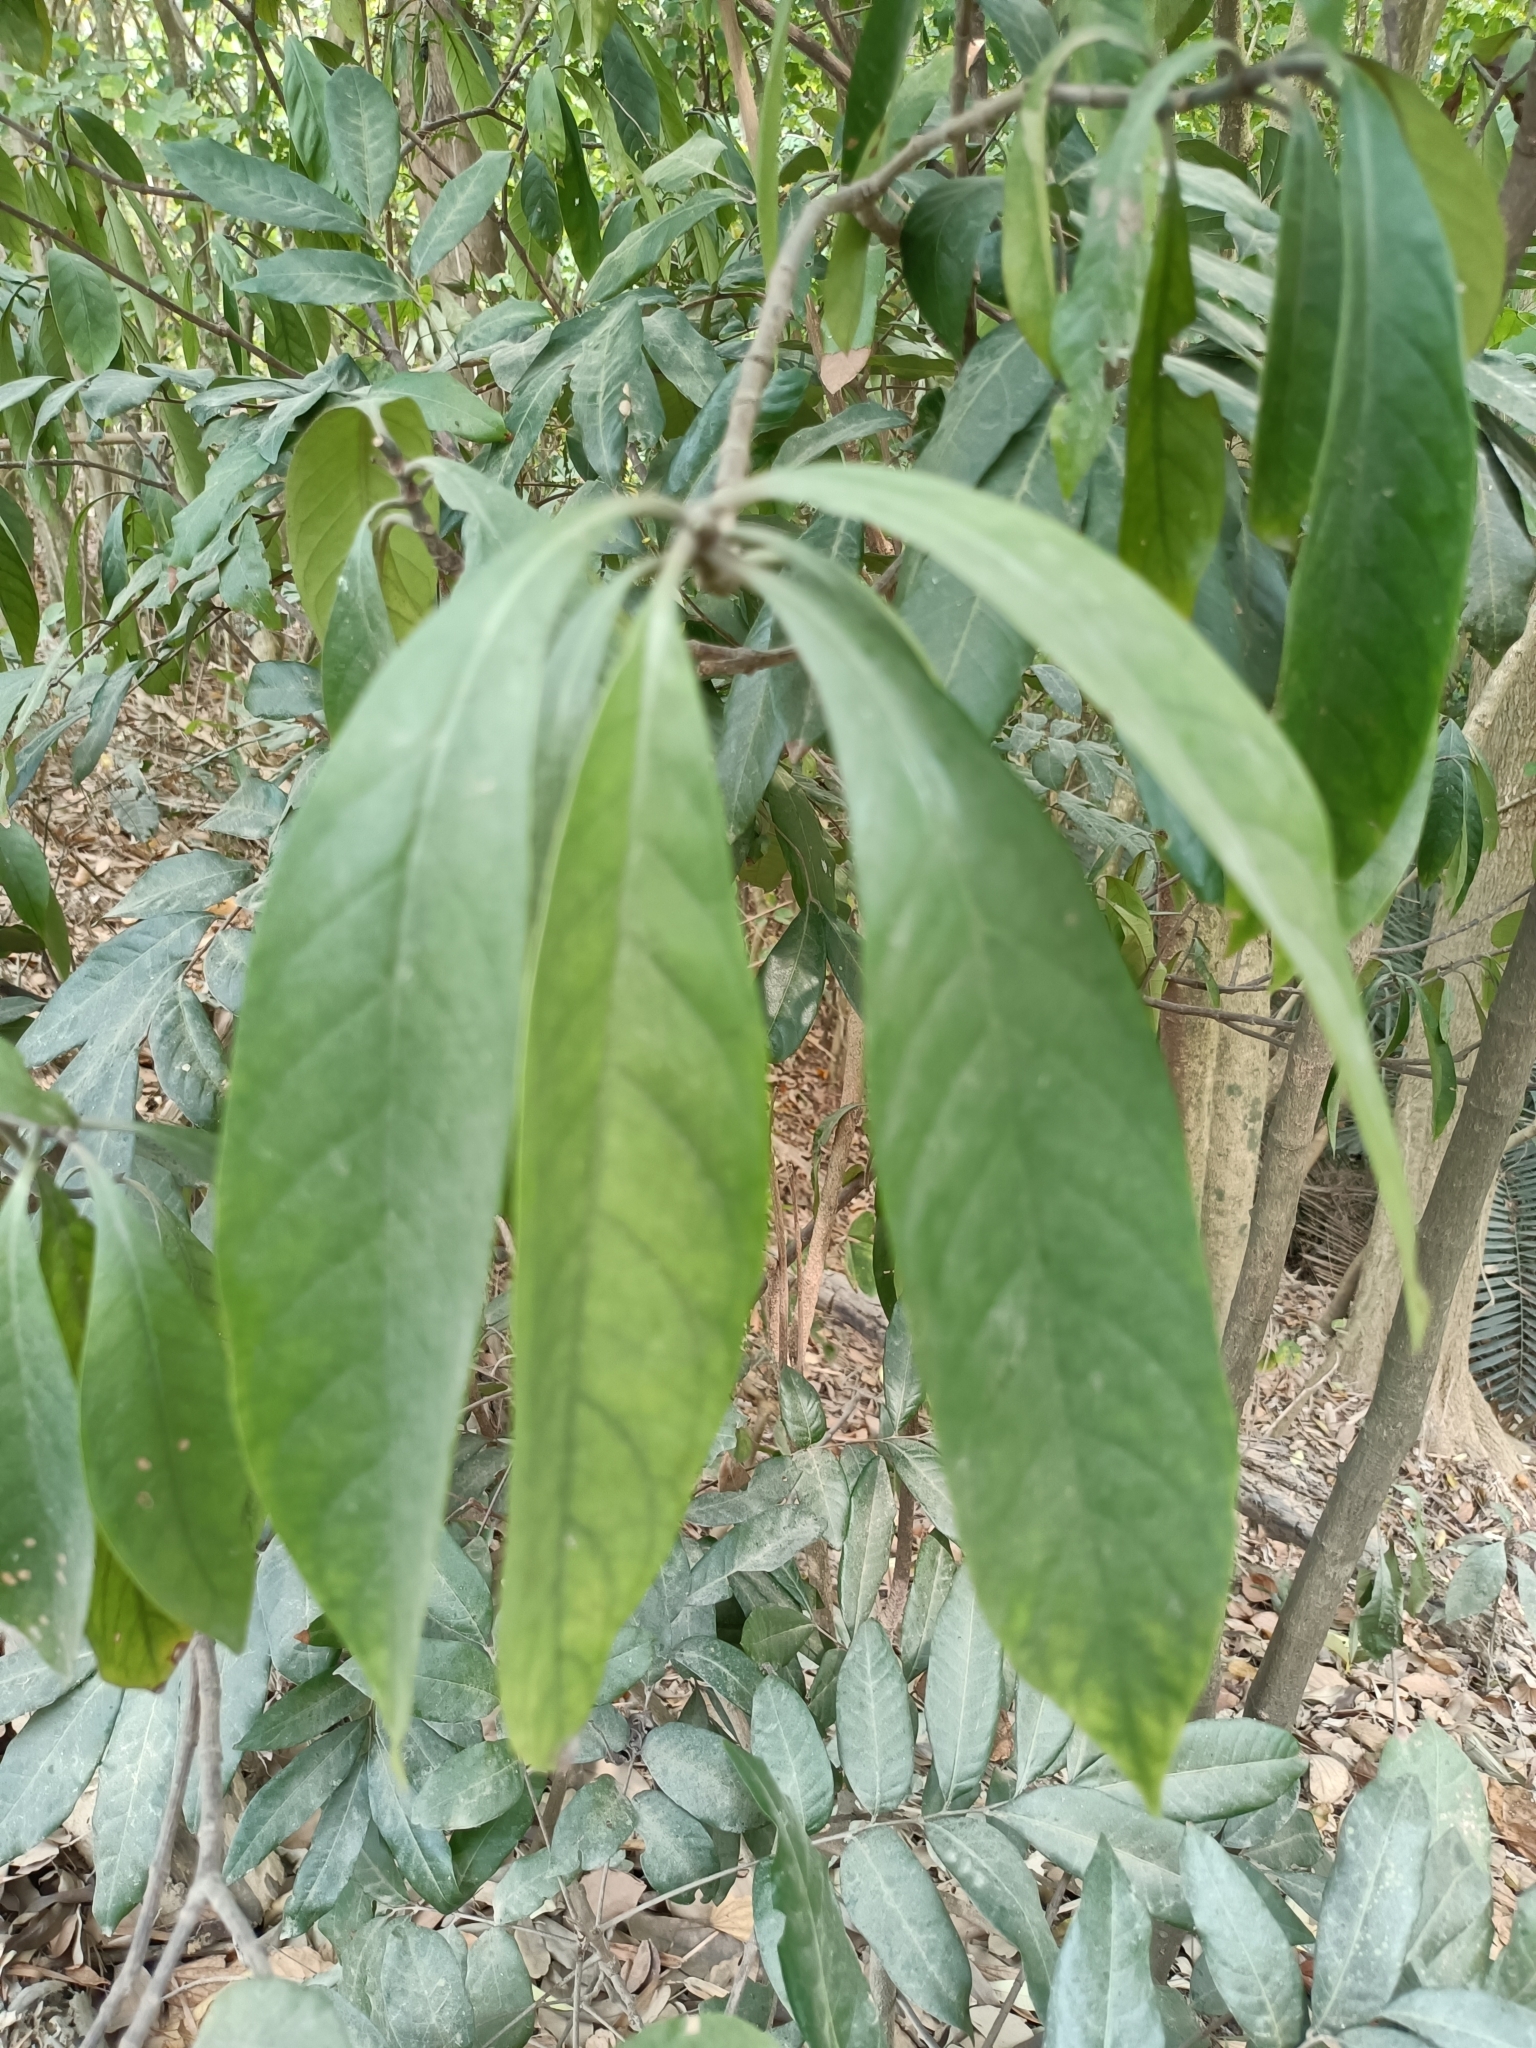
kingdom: Plantae
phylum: Tracheophyta
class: Magnoliopsida
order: Gentianales
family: Rubiaceae
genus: Psychotria
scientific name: Psychotria asiatica
